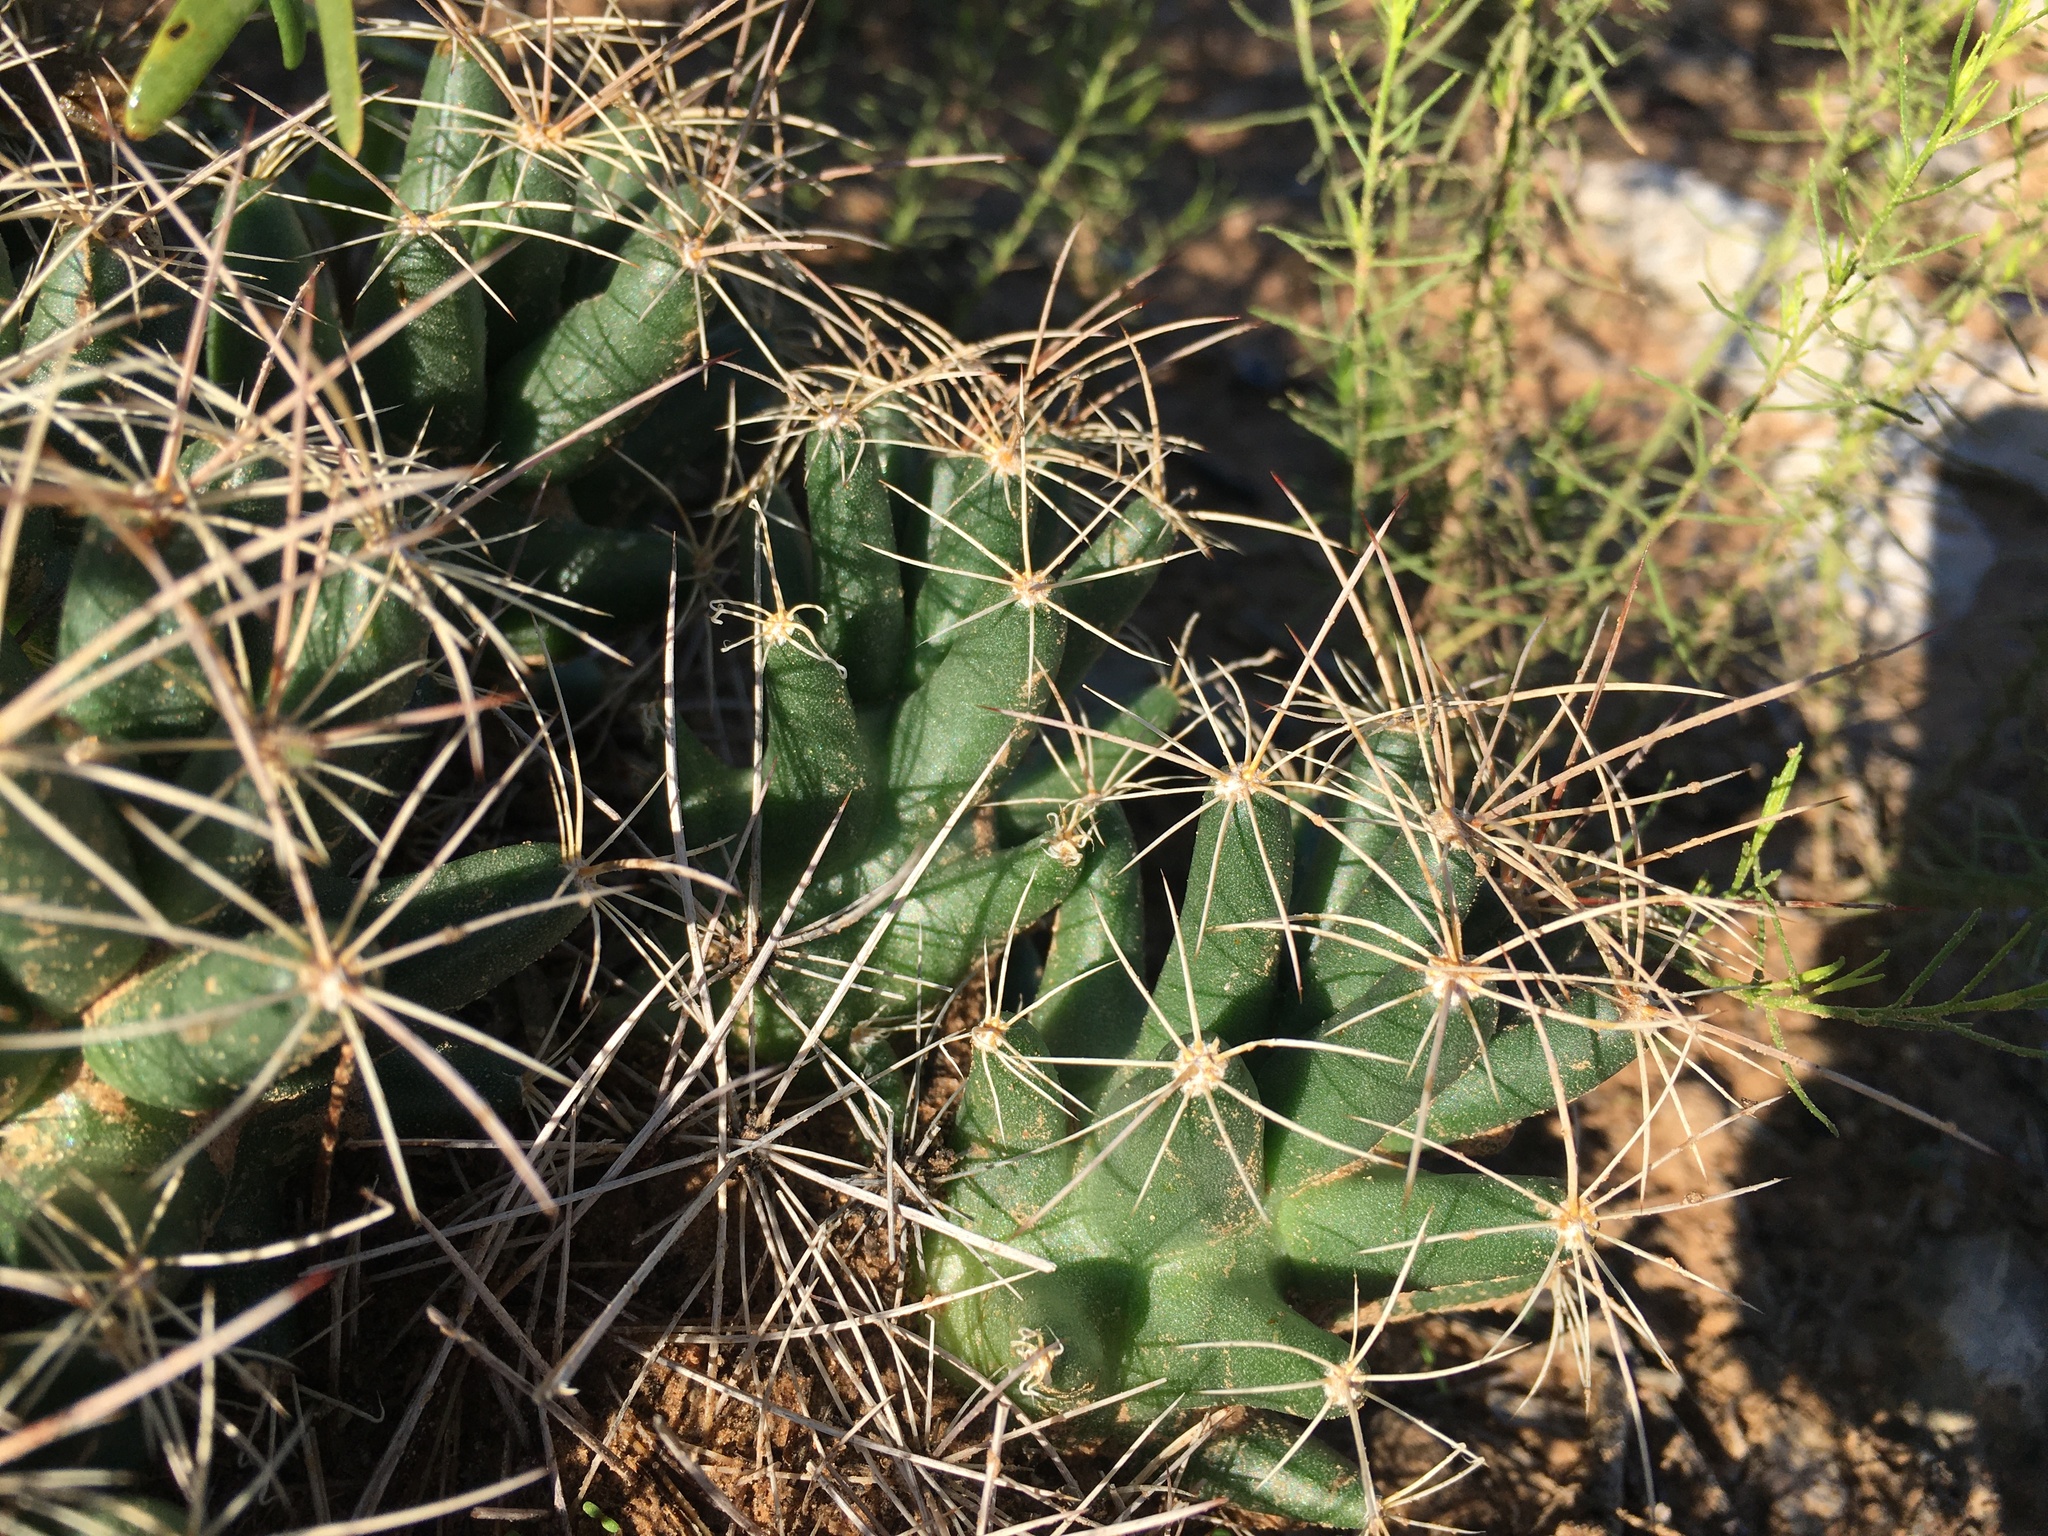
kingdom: Plantae
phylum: Tracheophyta
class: Magnoliopsida
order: Caryophyllales
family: Cactaceae
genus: Coryphantha
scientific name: Coryphantha macromeris
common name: Nipple beehive cactus
